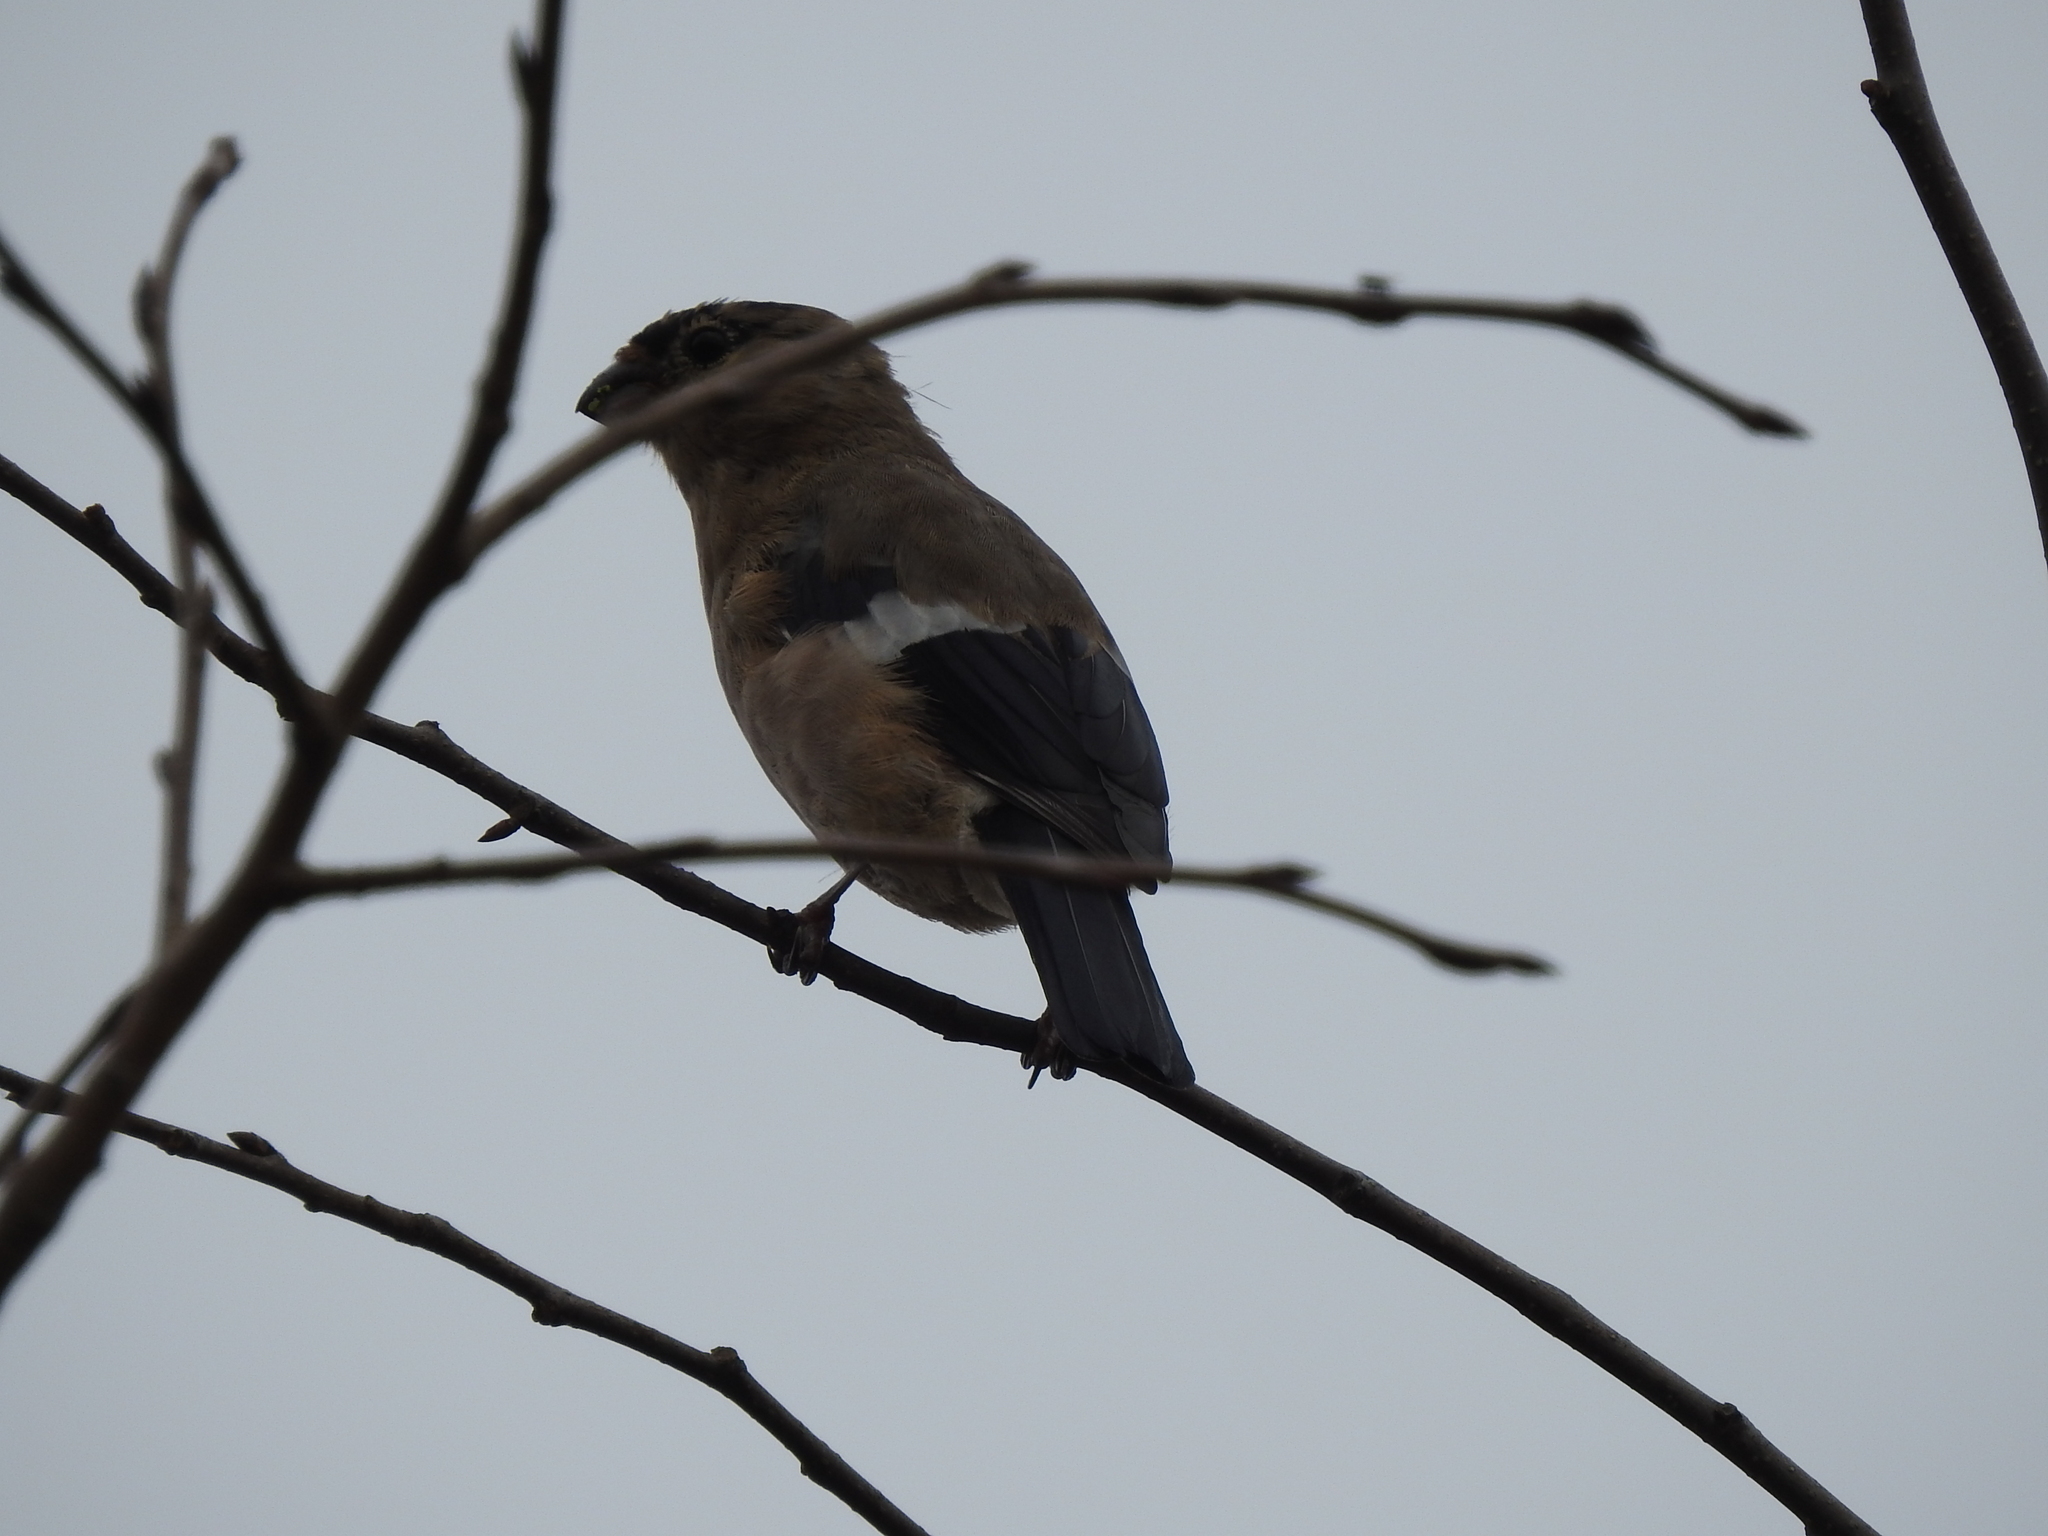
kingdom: Animalia
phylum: Chordata
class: Aves
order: Passeriformes
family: Fringillidae
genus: Pyrrhula
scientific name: Pyrrhula pyrrhula
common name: Eurasian bullfinch
